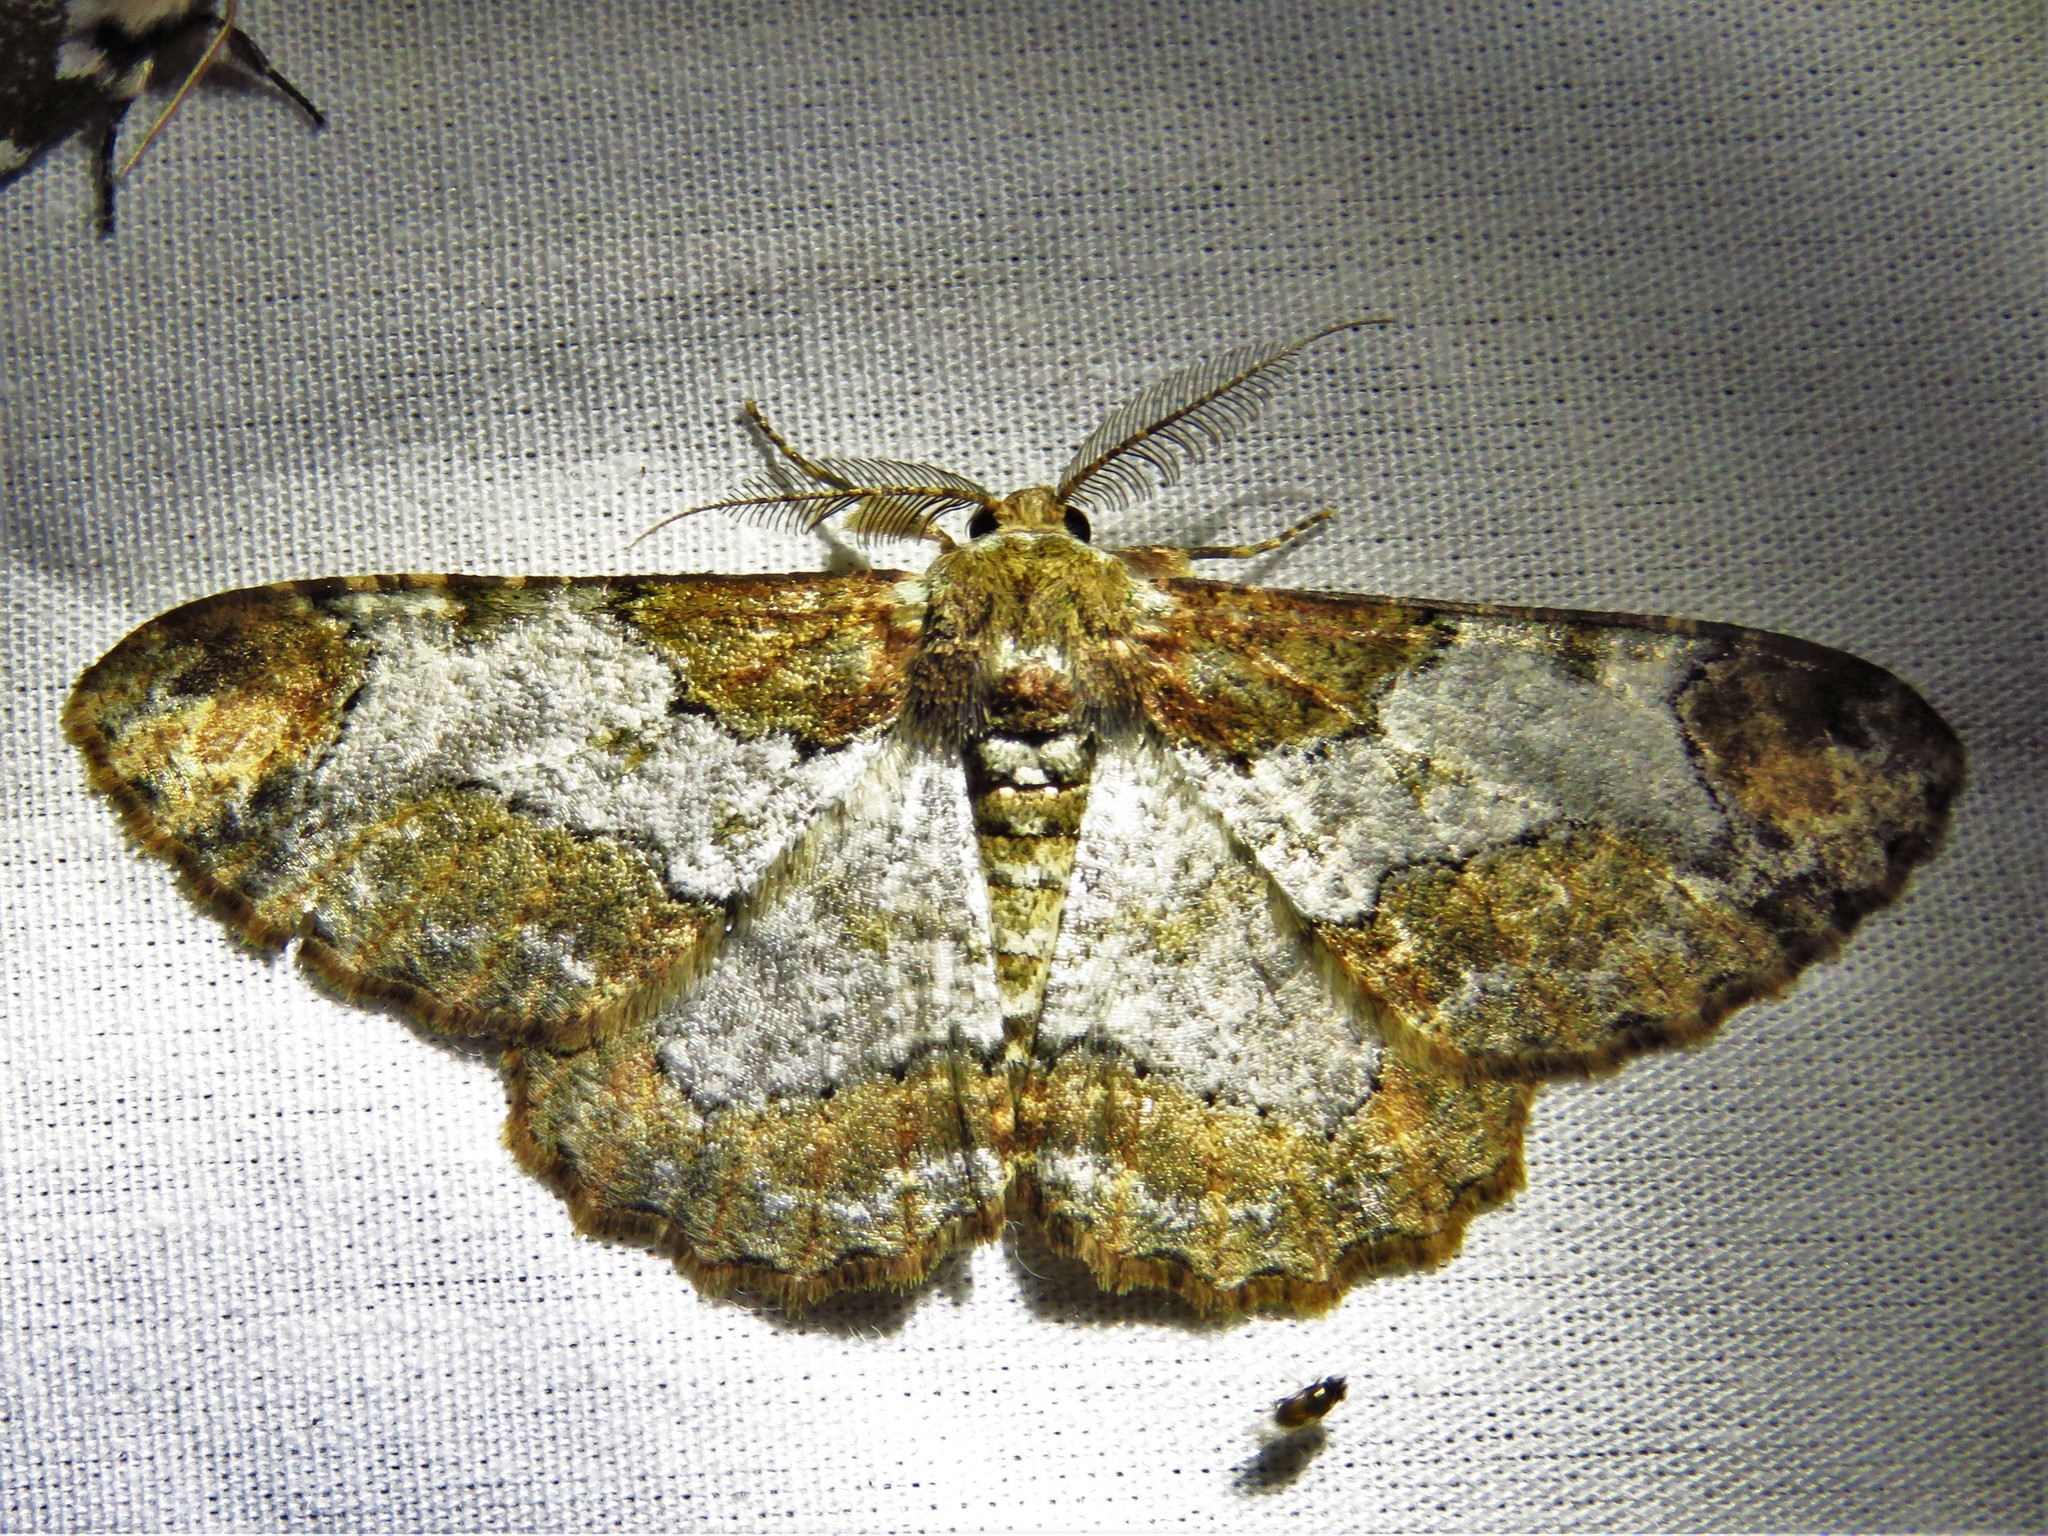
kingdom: Animalia
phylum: Arthropoda
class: Insecta
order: Lepidoptera
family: Geometridae
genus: Colocleora
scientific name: Colocleora divisaria
